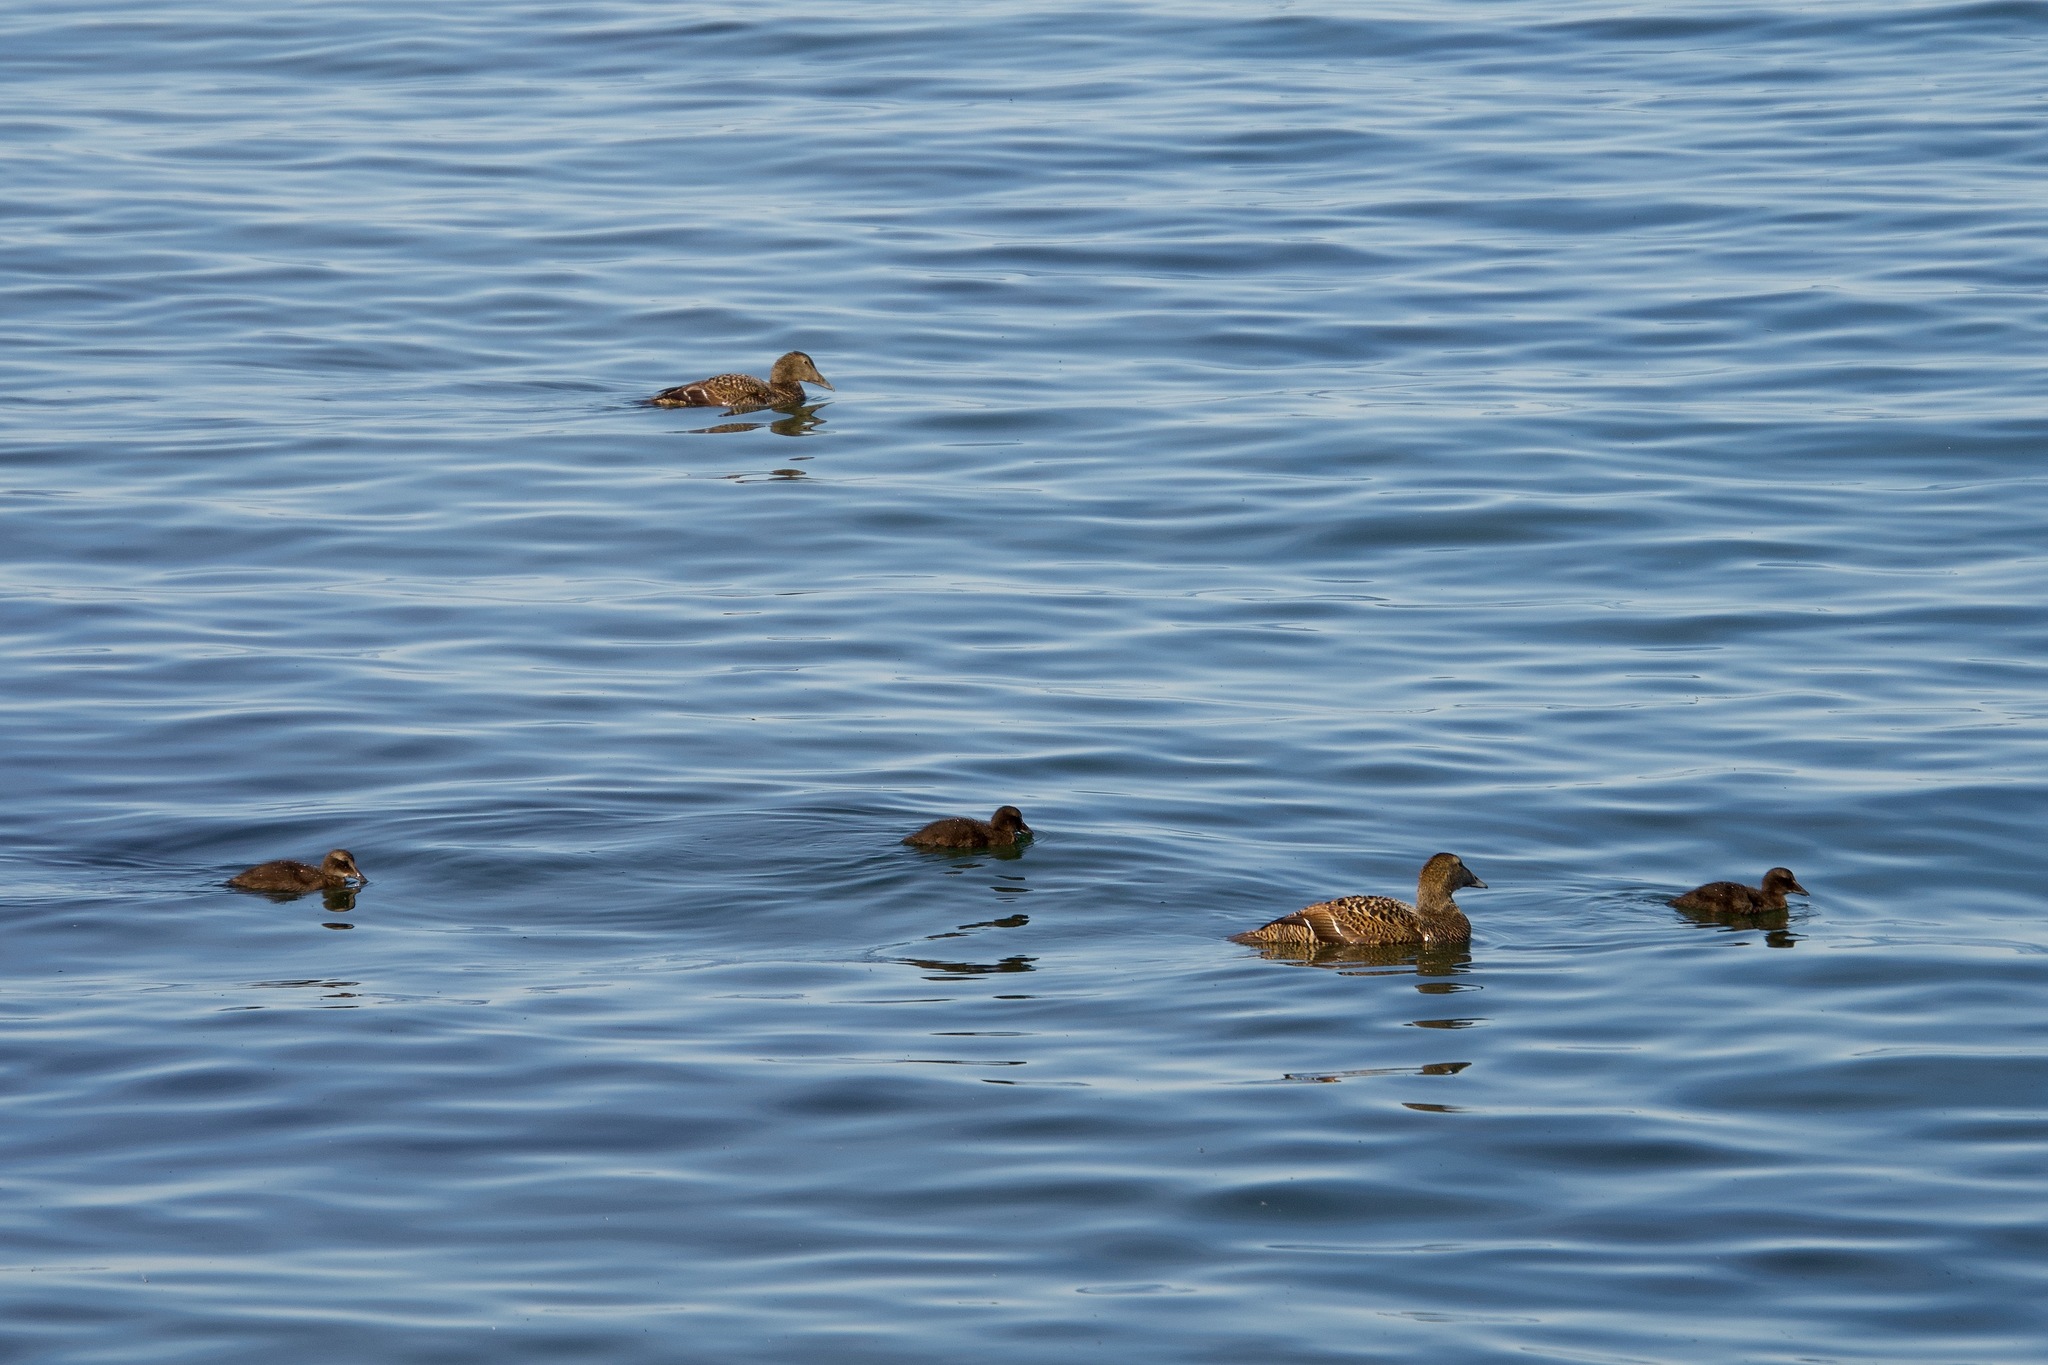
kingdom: Animalia
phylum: Chordata
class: Aves
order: Anseriformes
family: Anatidae
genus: Somateria
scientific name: Somateria mollissima
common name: Common eider
